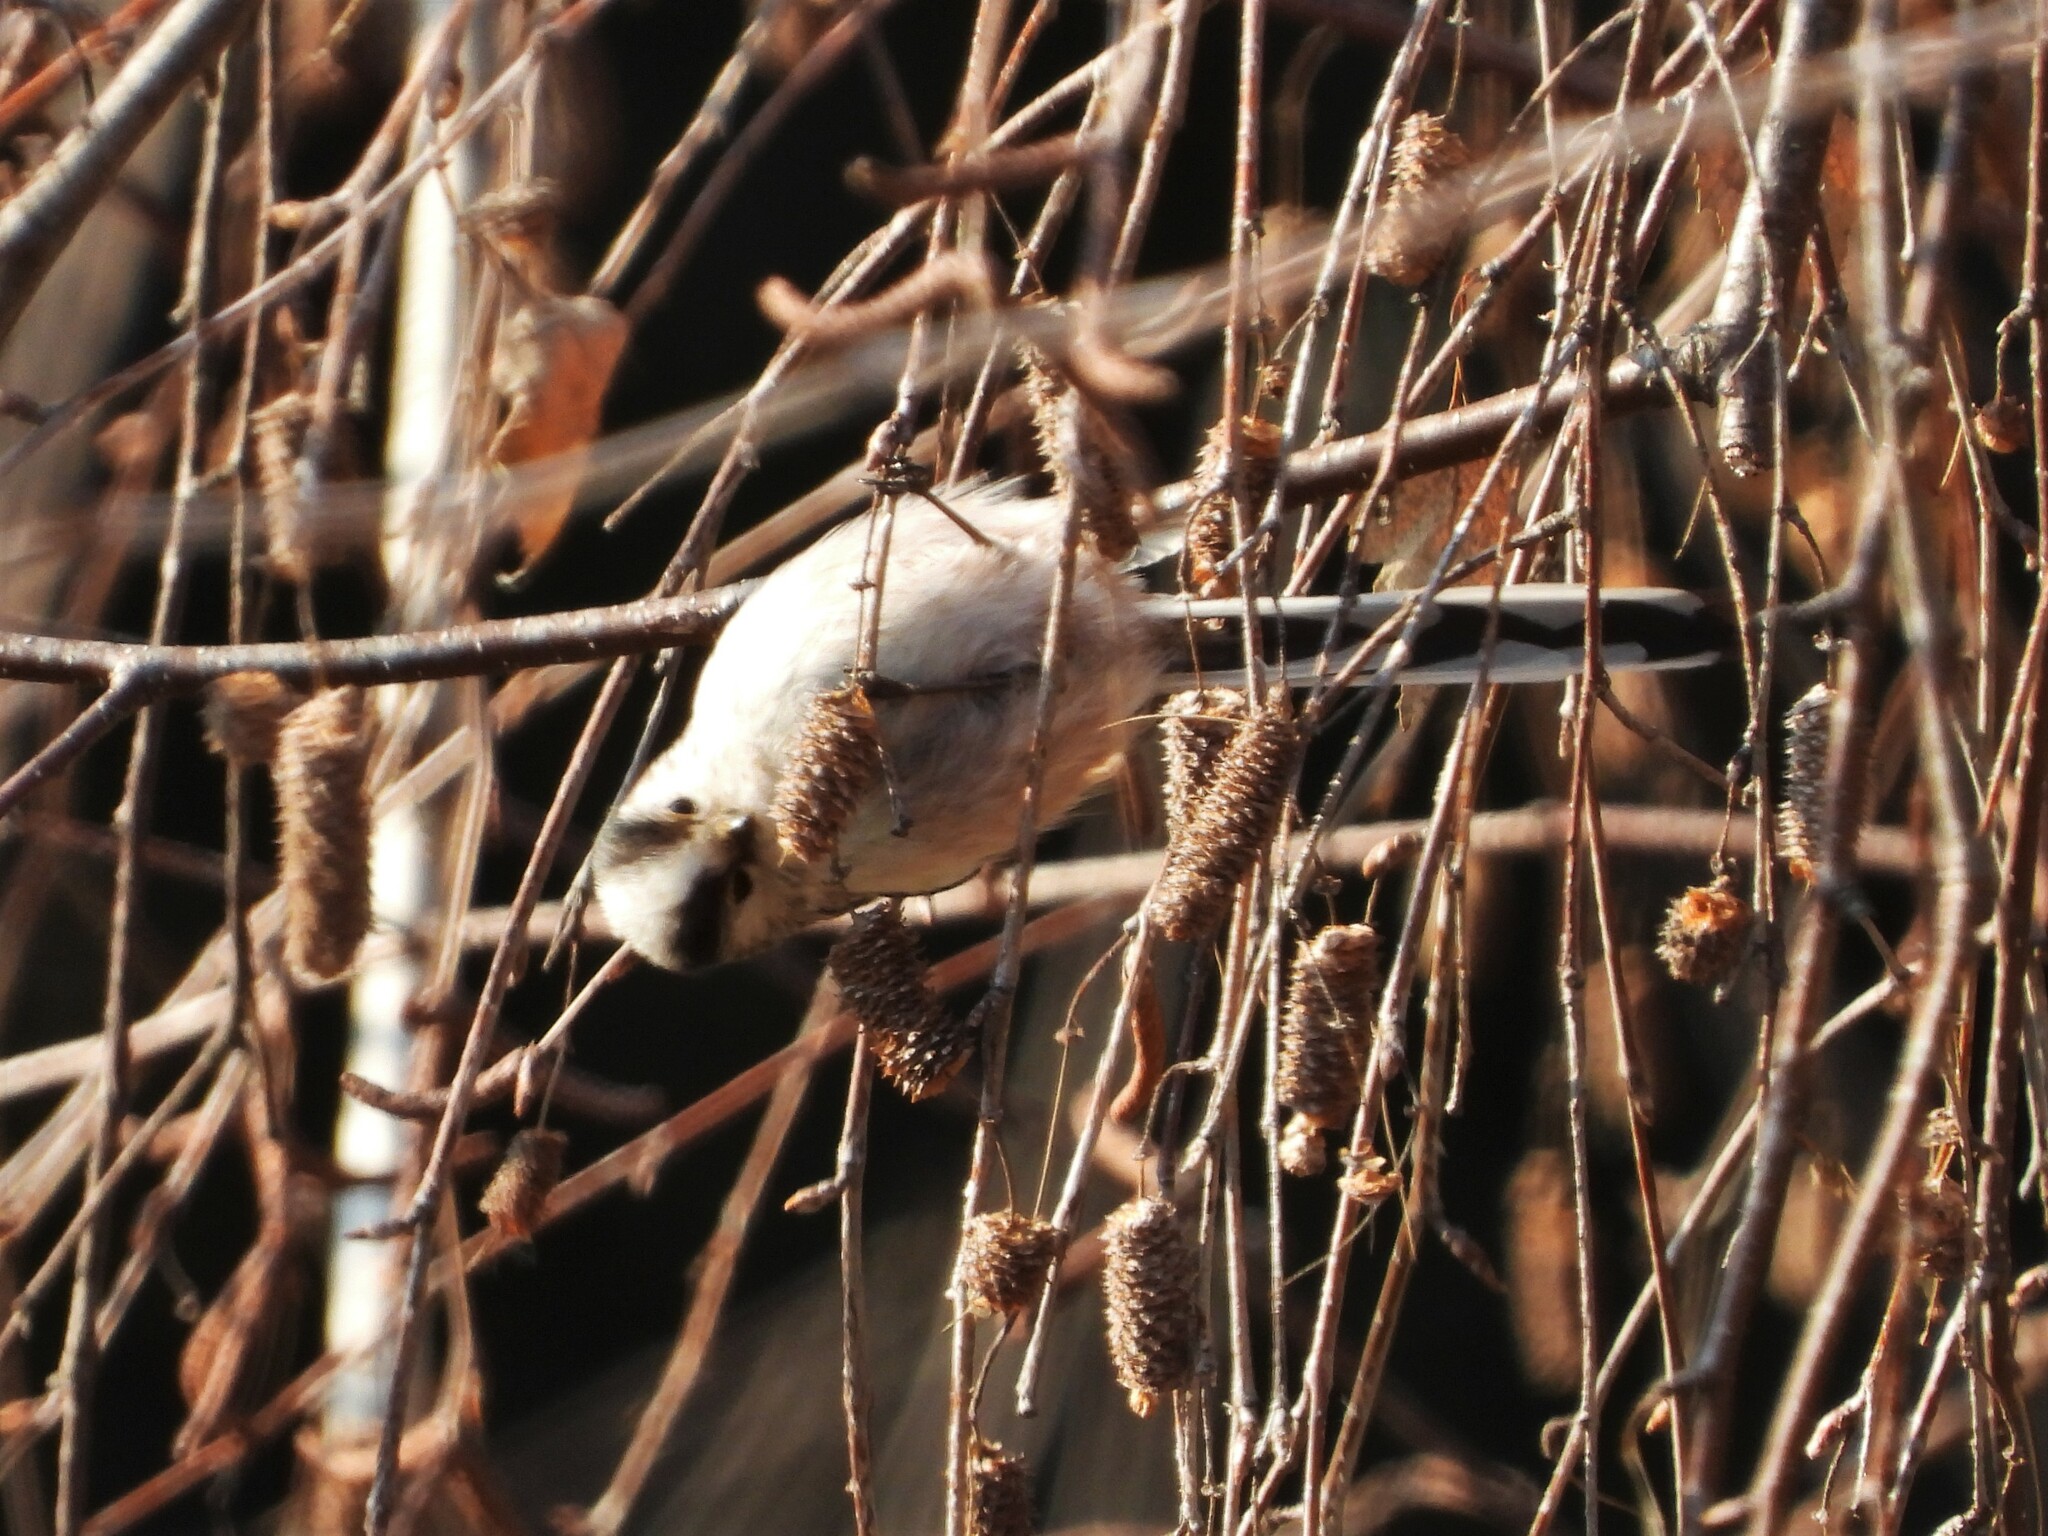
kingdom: Animalia
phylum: Chordata
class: Aves
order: Passeriformes
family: Aegithalidae
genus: Aegithalos
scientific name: Aegithalos caudatus
